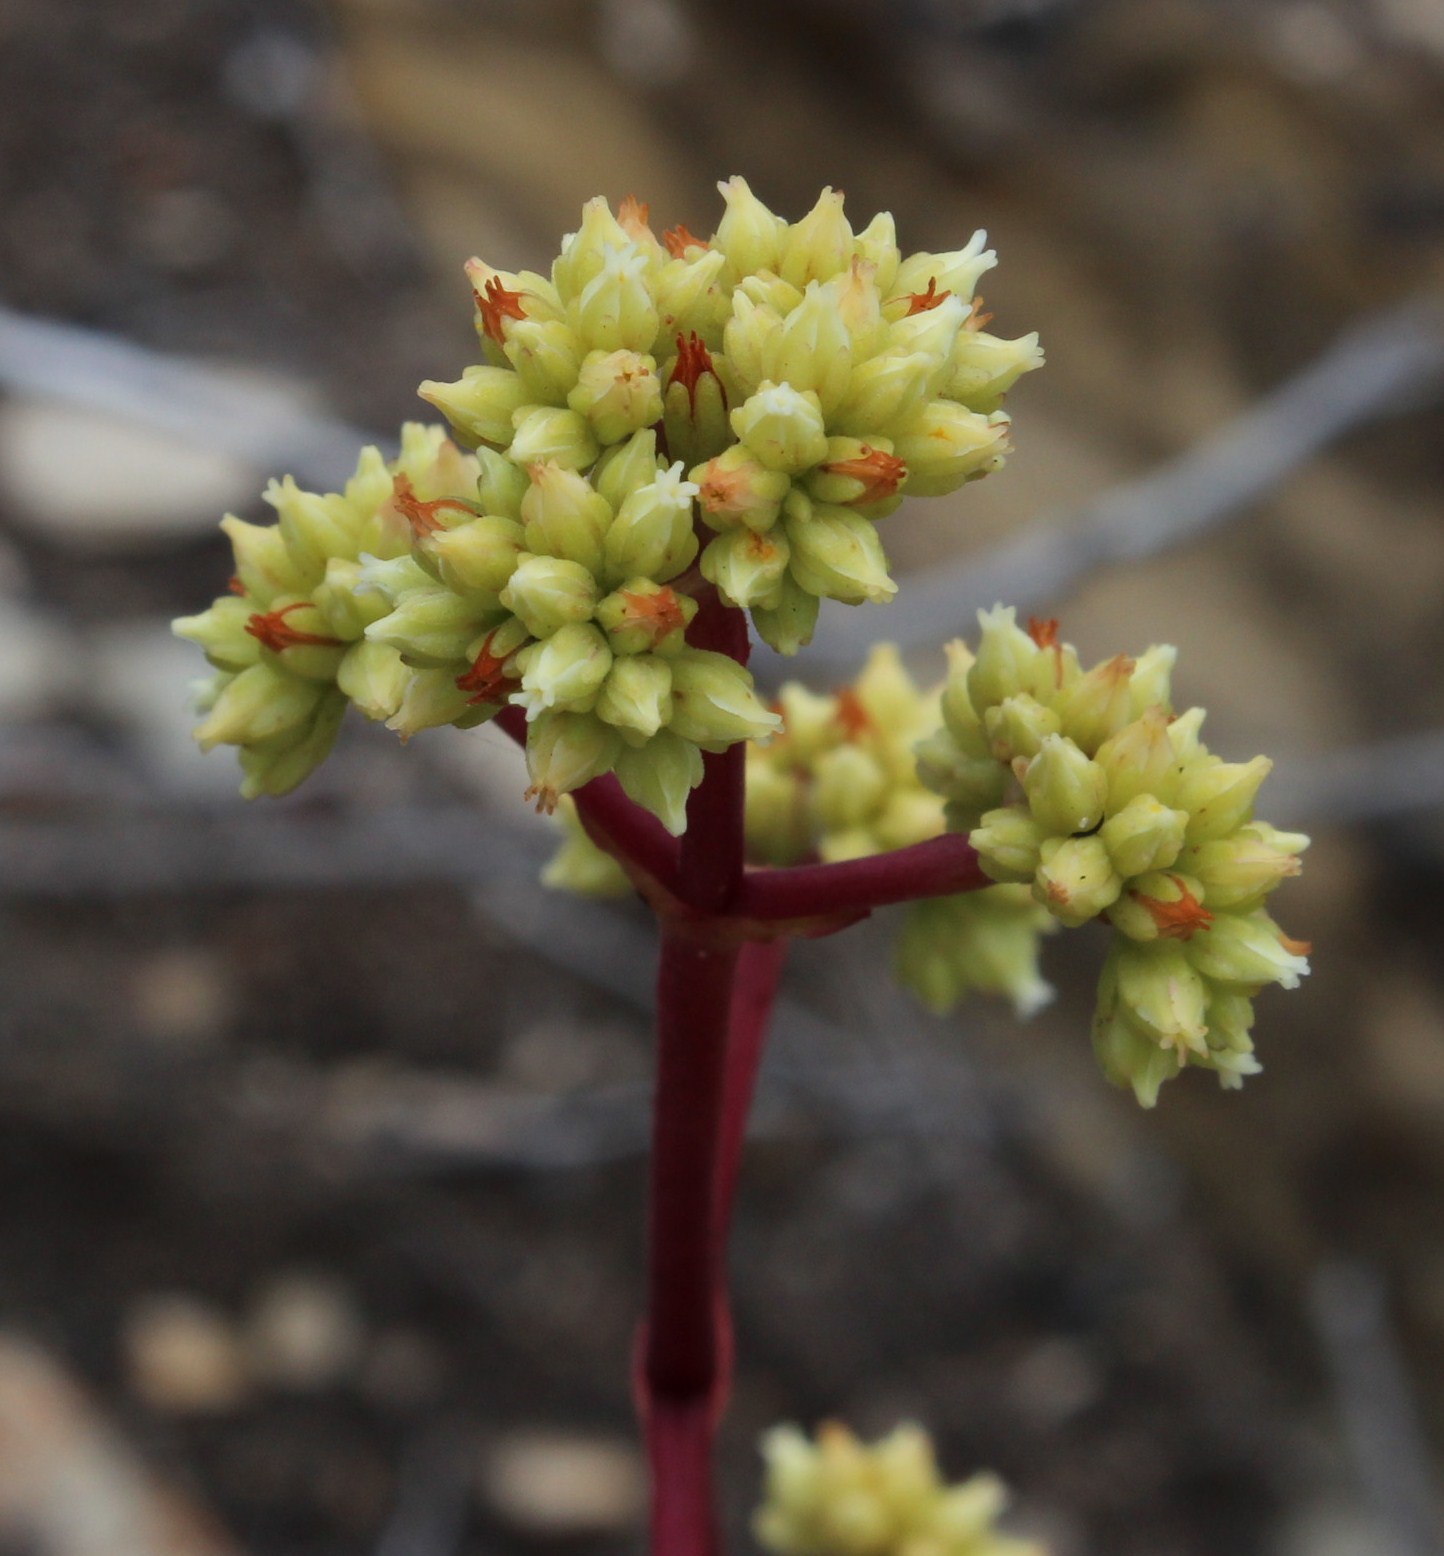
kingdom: Plantae
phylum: Tracheophyta
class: Magnoliopsida
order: Saxifragales
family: Crassulaceae
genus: Crassula
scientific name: Crassula atropurpurea
